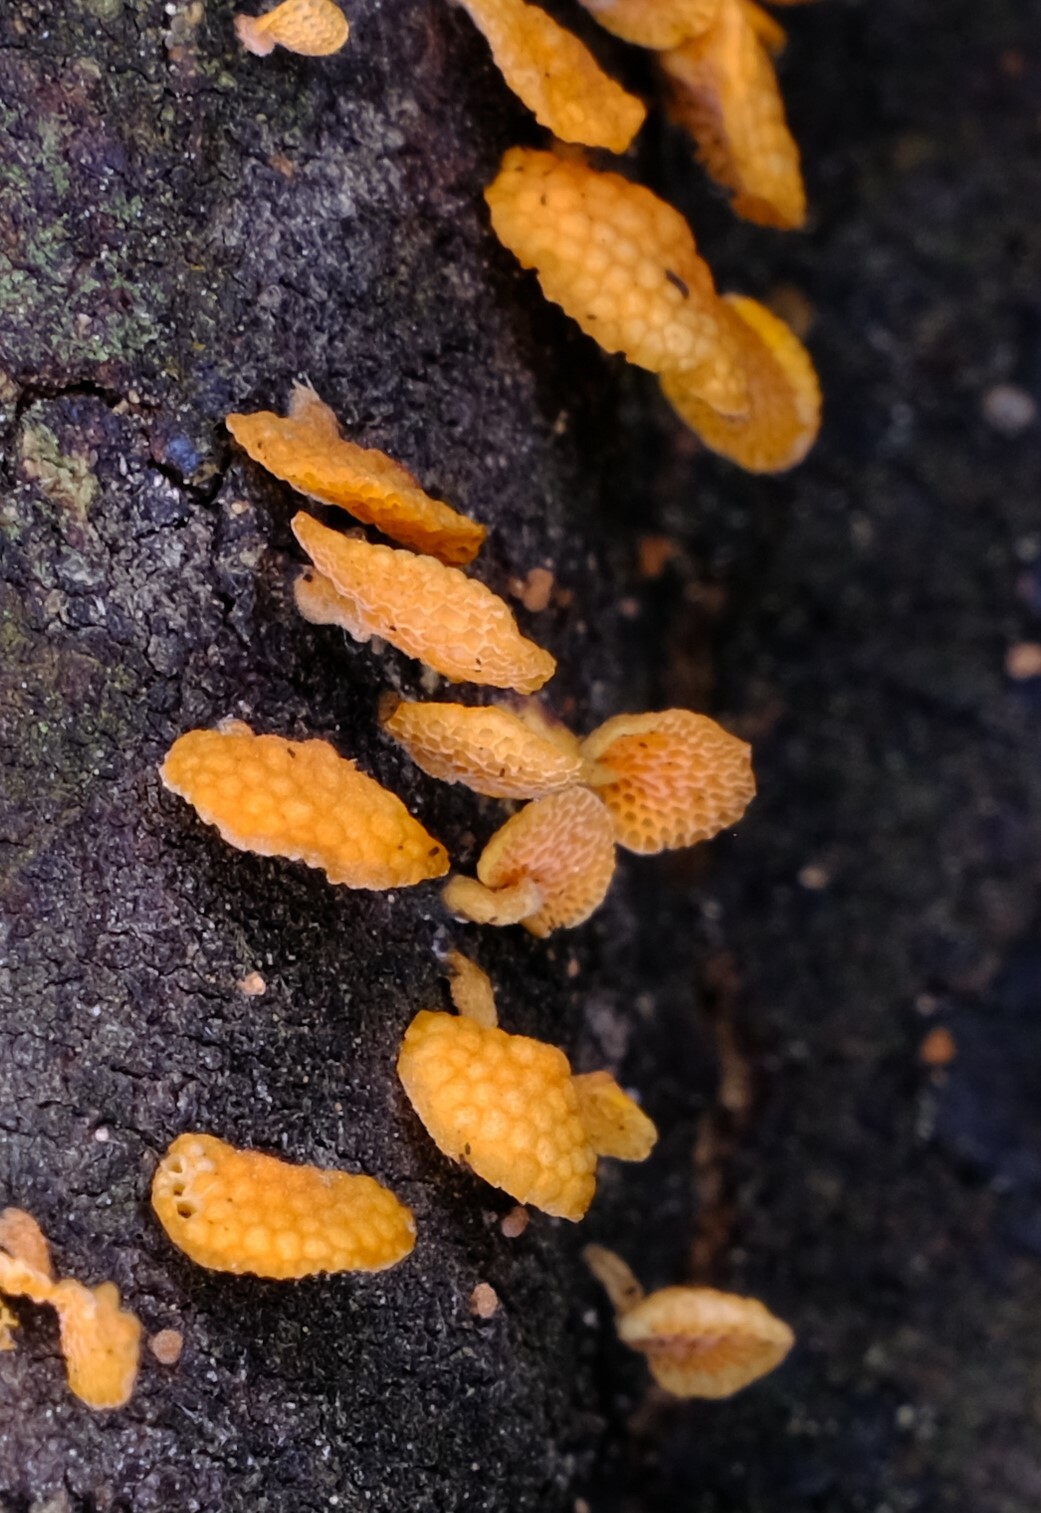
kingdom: Fungi
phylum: Basidiomycota
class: Agaricomycetes
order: Agaricales
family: Mycenaceae
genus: Favolaschia
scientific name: Favolaschia claudopus
